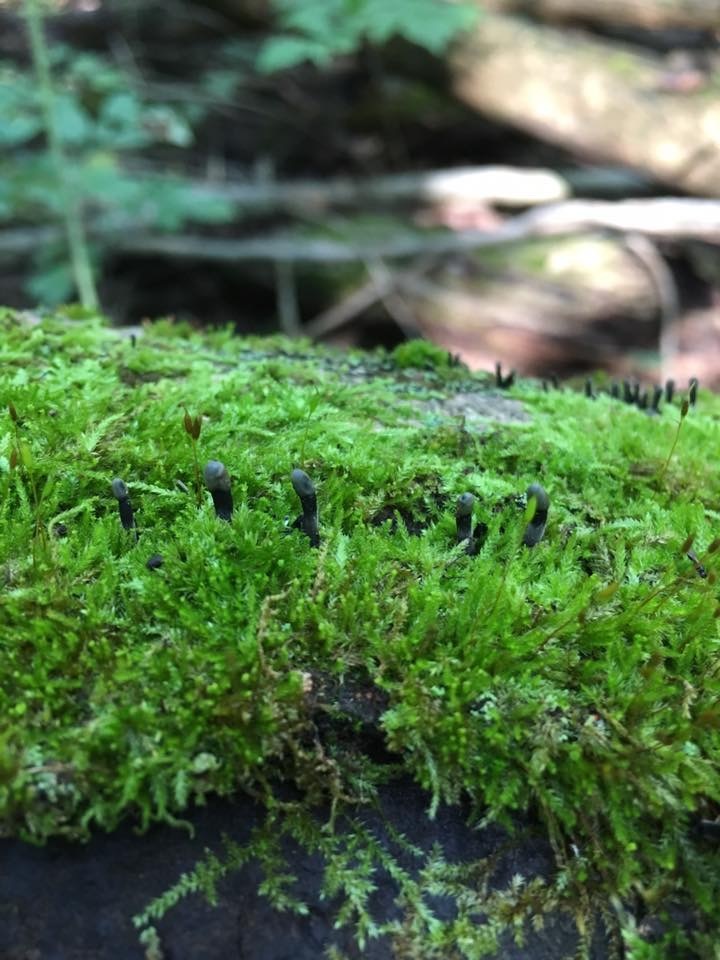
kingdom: Fungi
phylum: Ascomycota
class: Leotiomycetes
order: Helotiales
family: Bulgariaceae
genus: Holwaya
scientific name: Holwaya mucida
